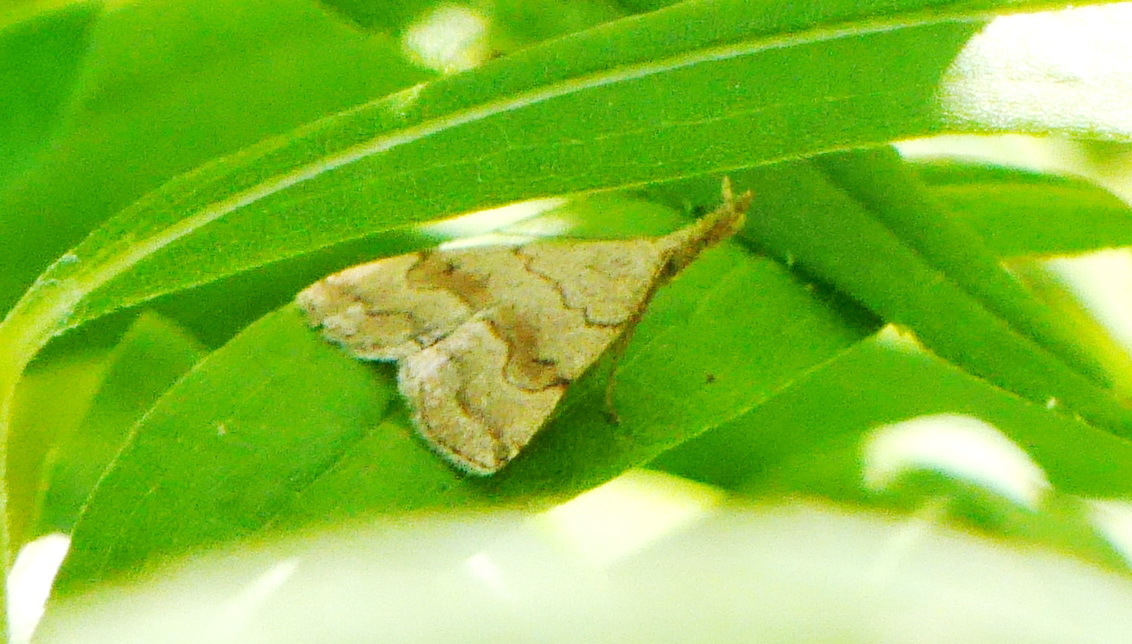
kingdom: Animalia
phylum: Arthropoda
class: Insecta
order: Lepidoptera
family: Erebidae
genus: Phalaenostola
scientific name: Phalaenostola metonalis
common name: Pale phalaenostola moth
